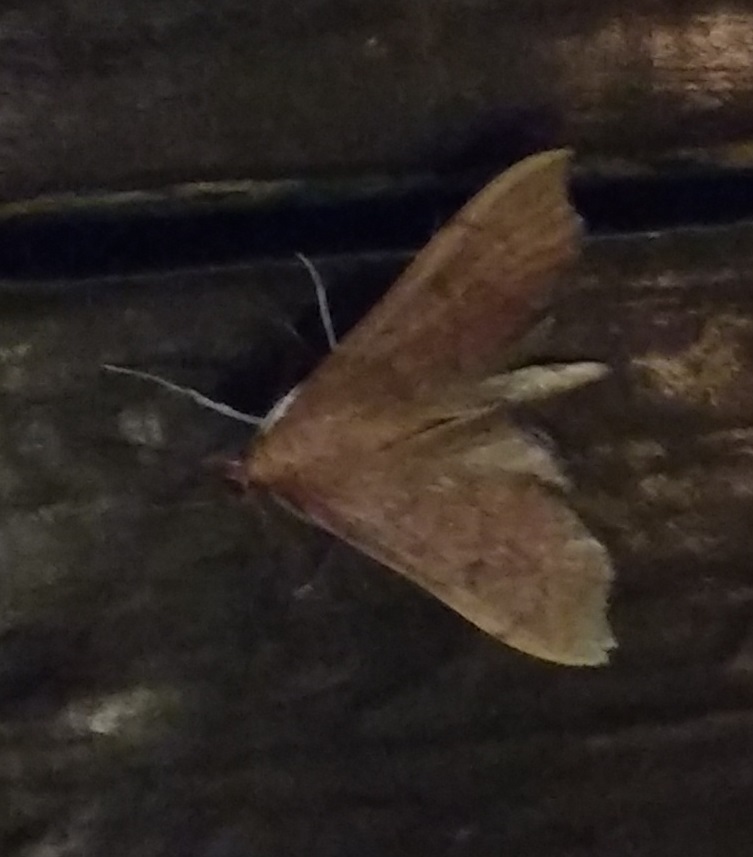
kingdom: Animalia
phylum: Arthropoda
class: Insecta
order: Lepidoptera
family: Crambidae
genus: Sericoplaga
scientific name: Sericoplaga externalis
